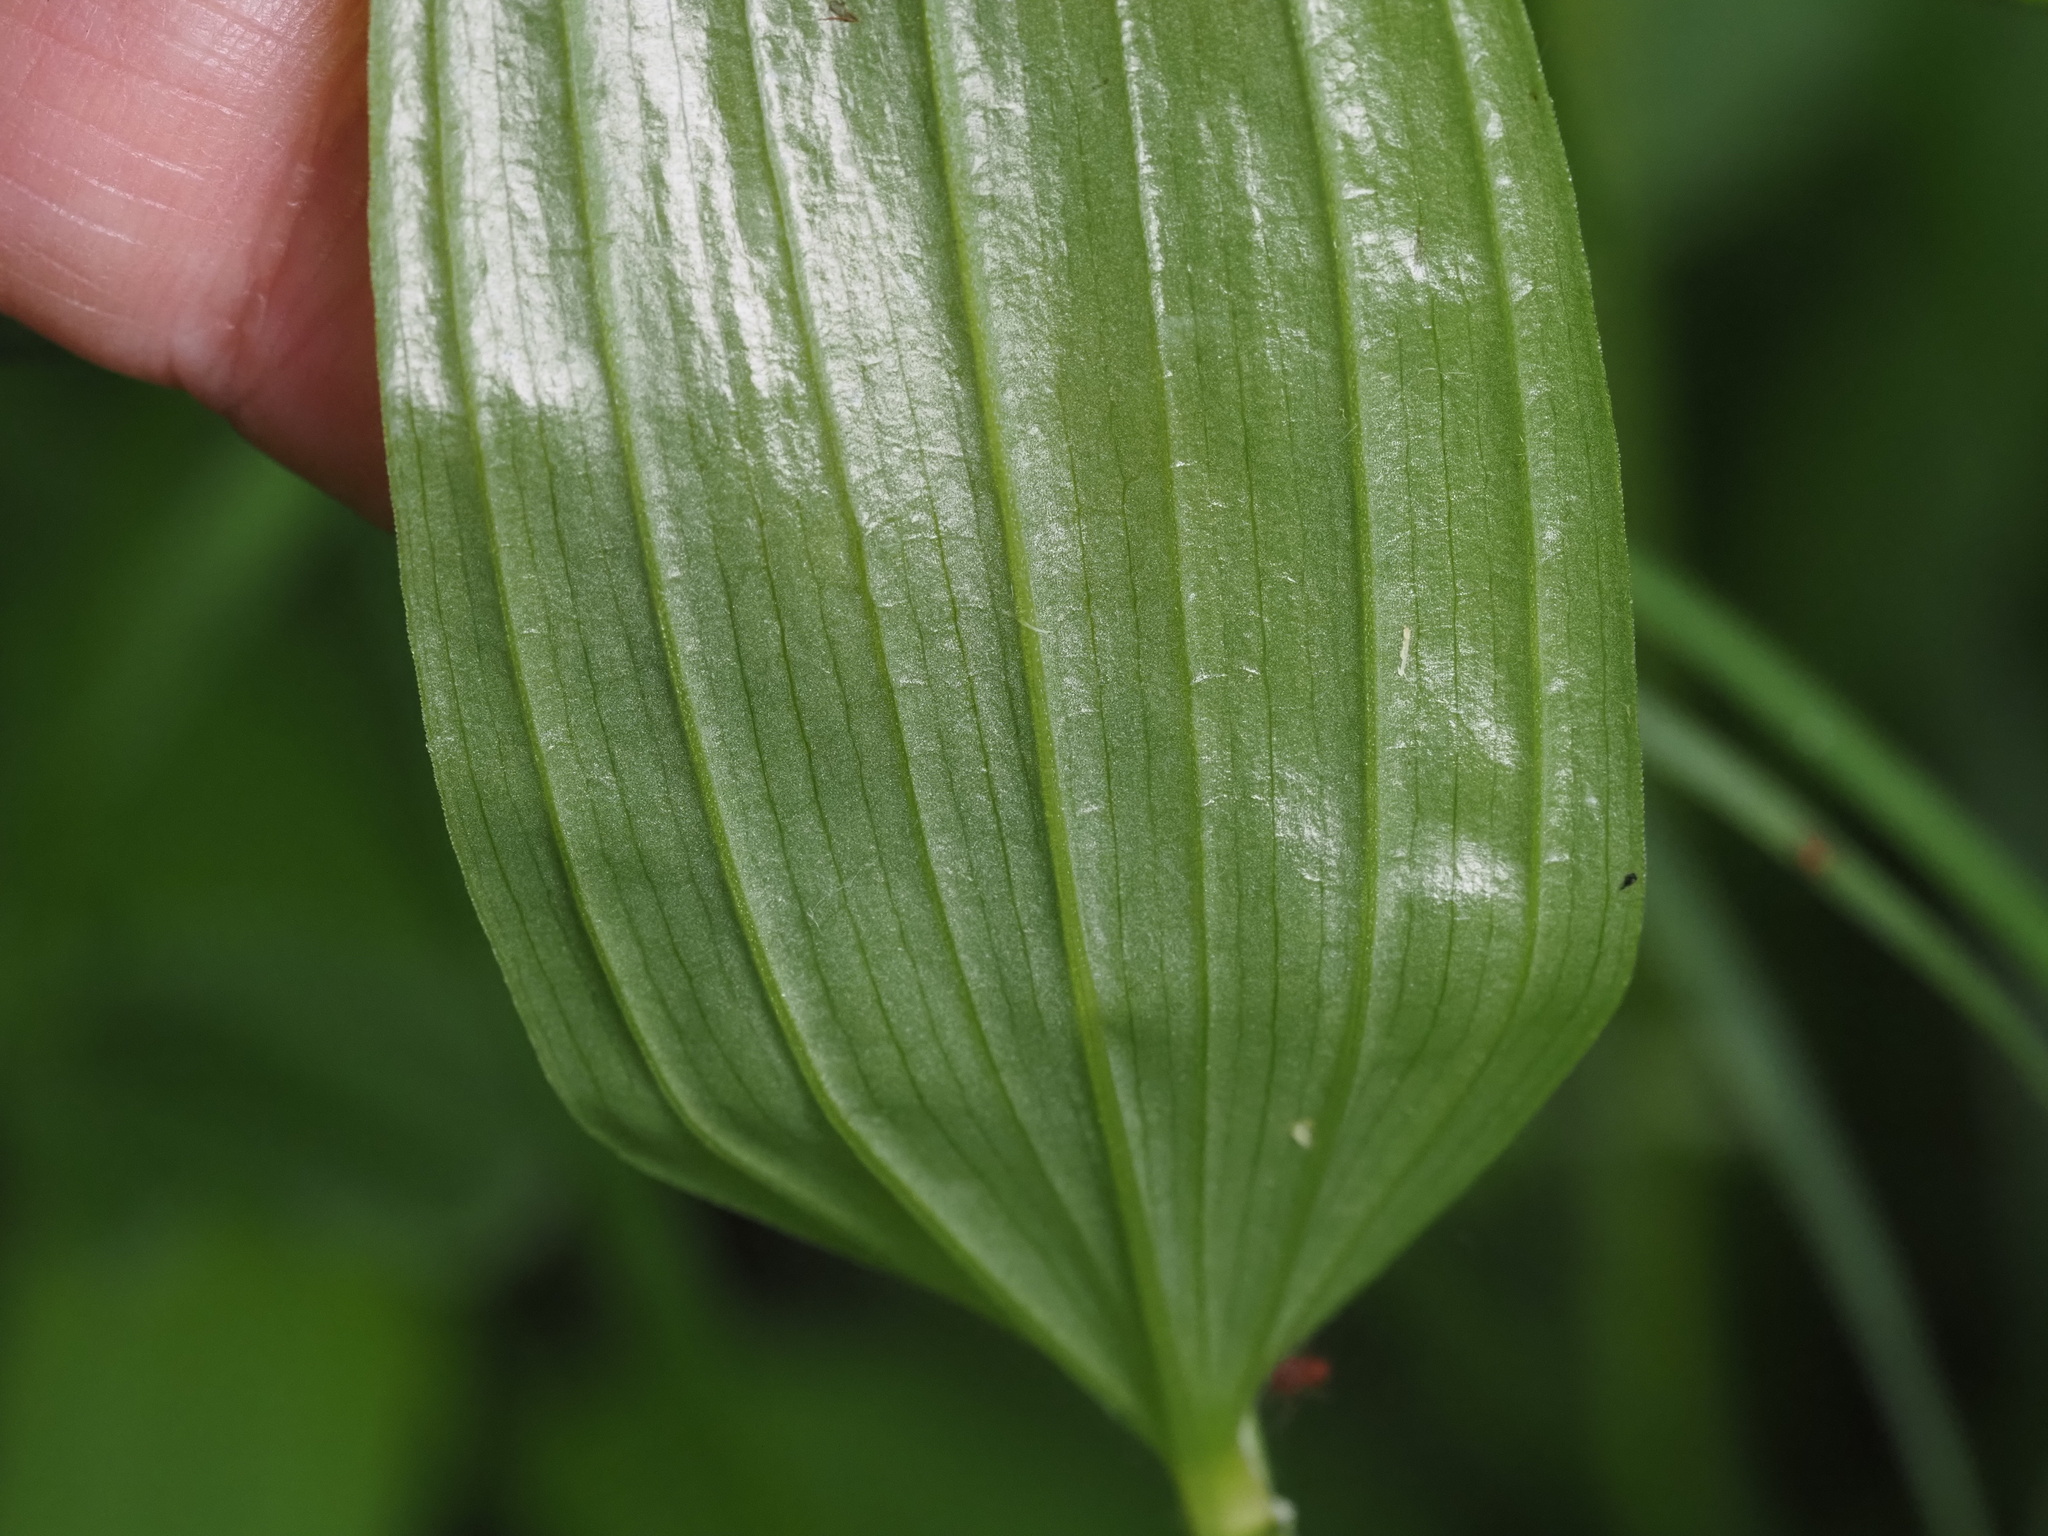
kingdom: Plantae
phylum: Tracheophyta
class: Liliopsida
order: Liliales
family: Colchicaceae
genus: Disporum
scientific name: Disporum sessile
